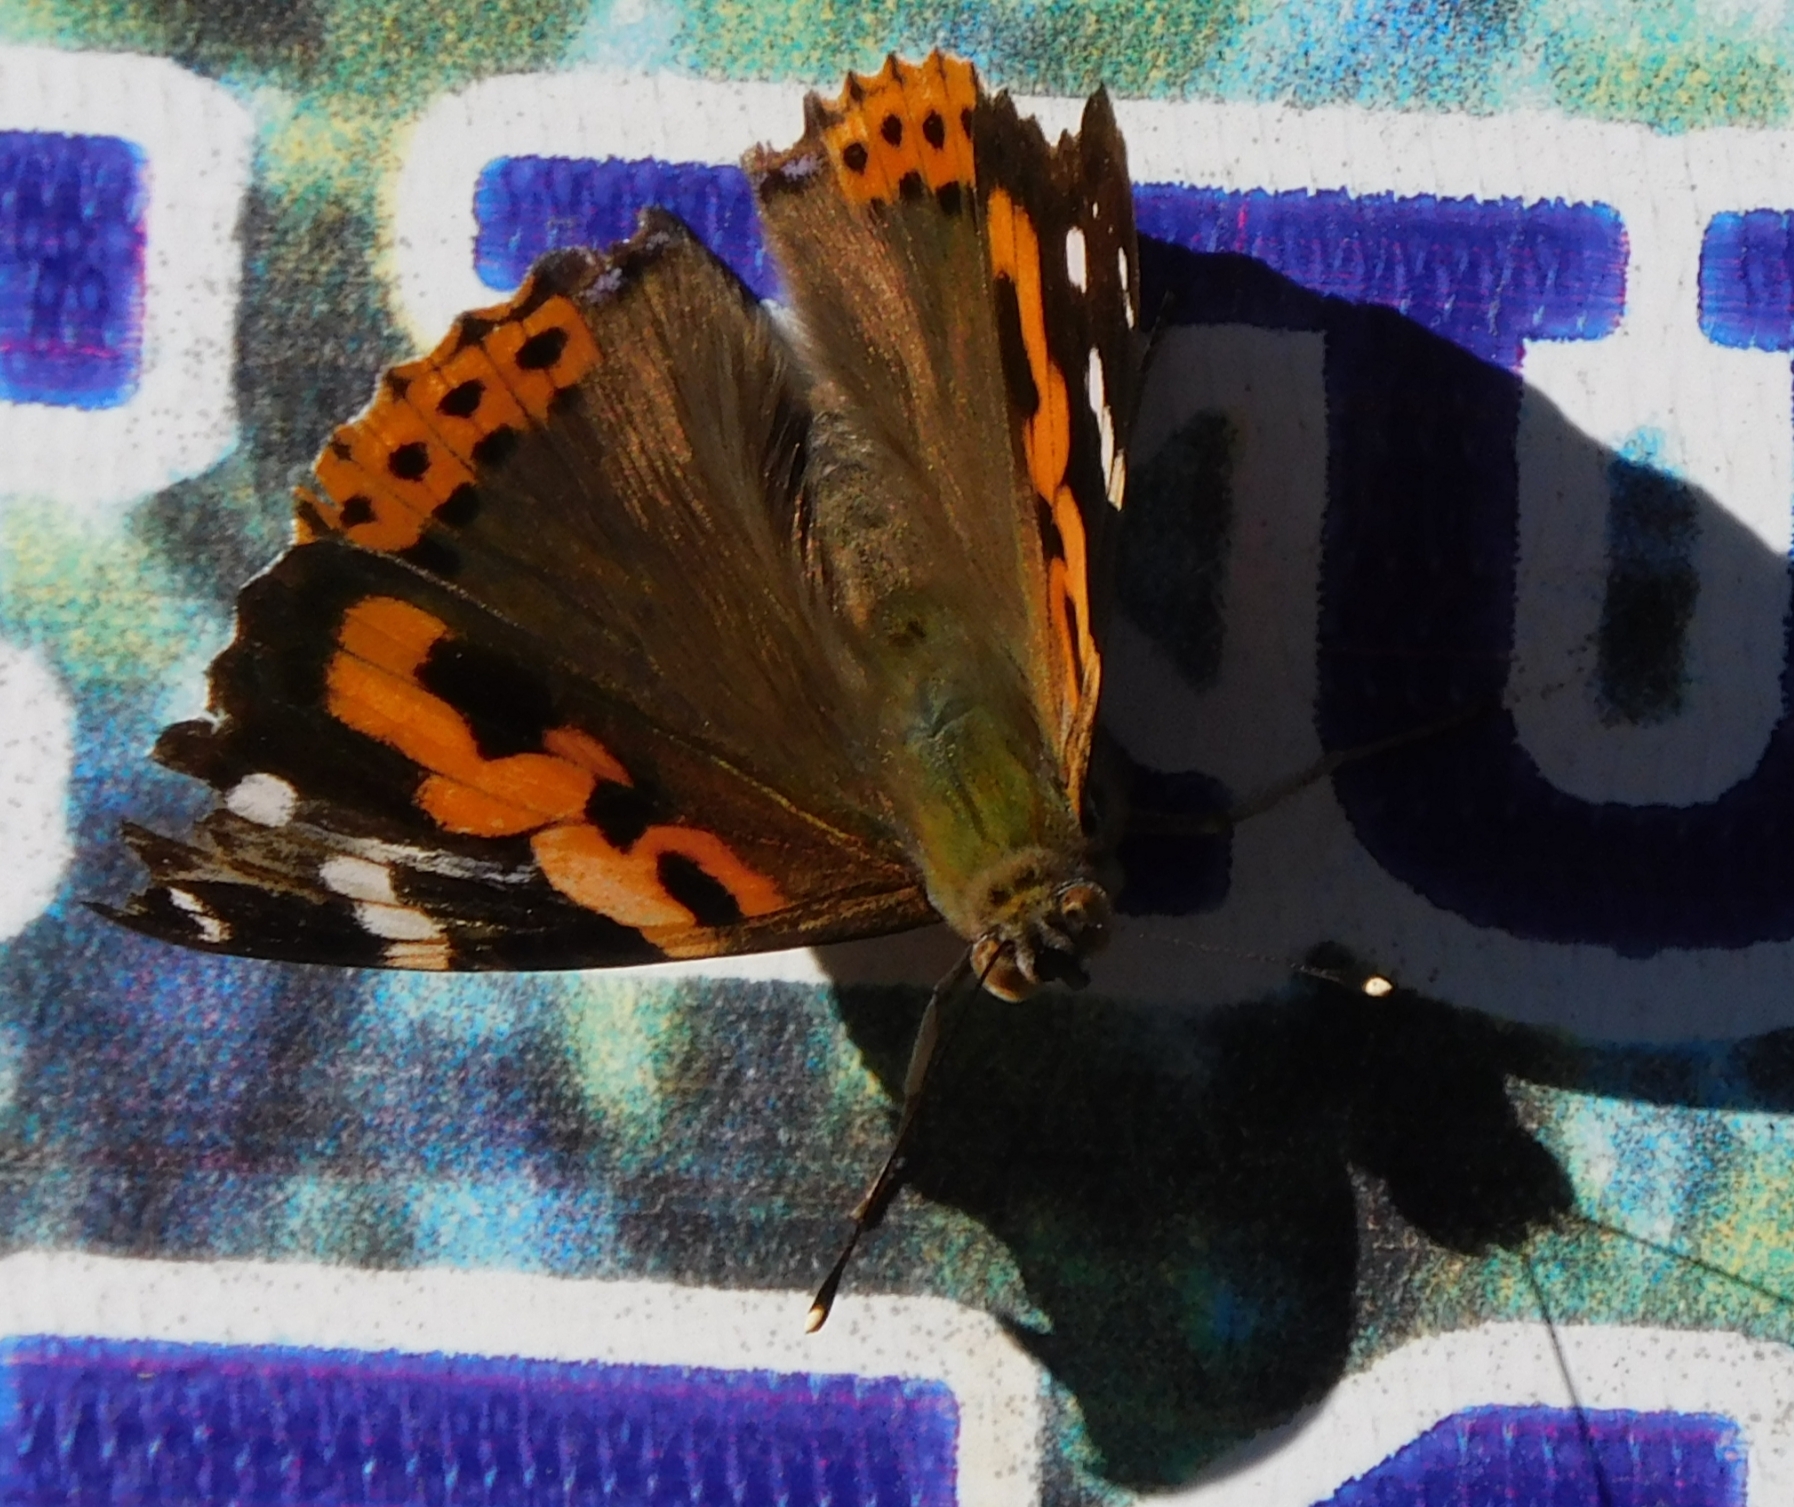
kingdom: Animalia
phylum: Arthropoda
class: Insecta
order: Lepidoptera
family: Nymphalidae
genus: Vanessa
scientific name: Vanessa indica
